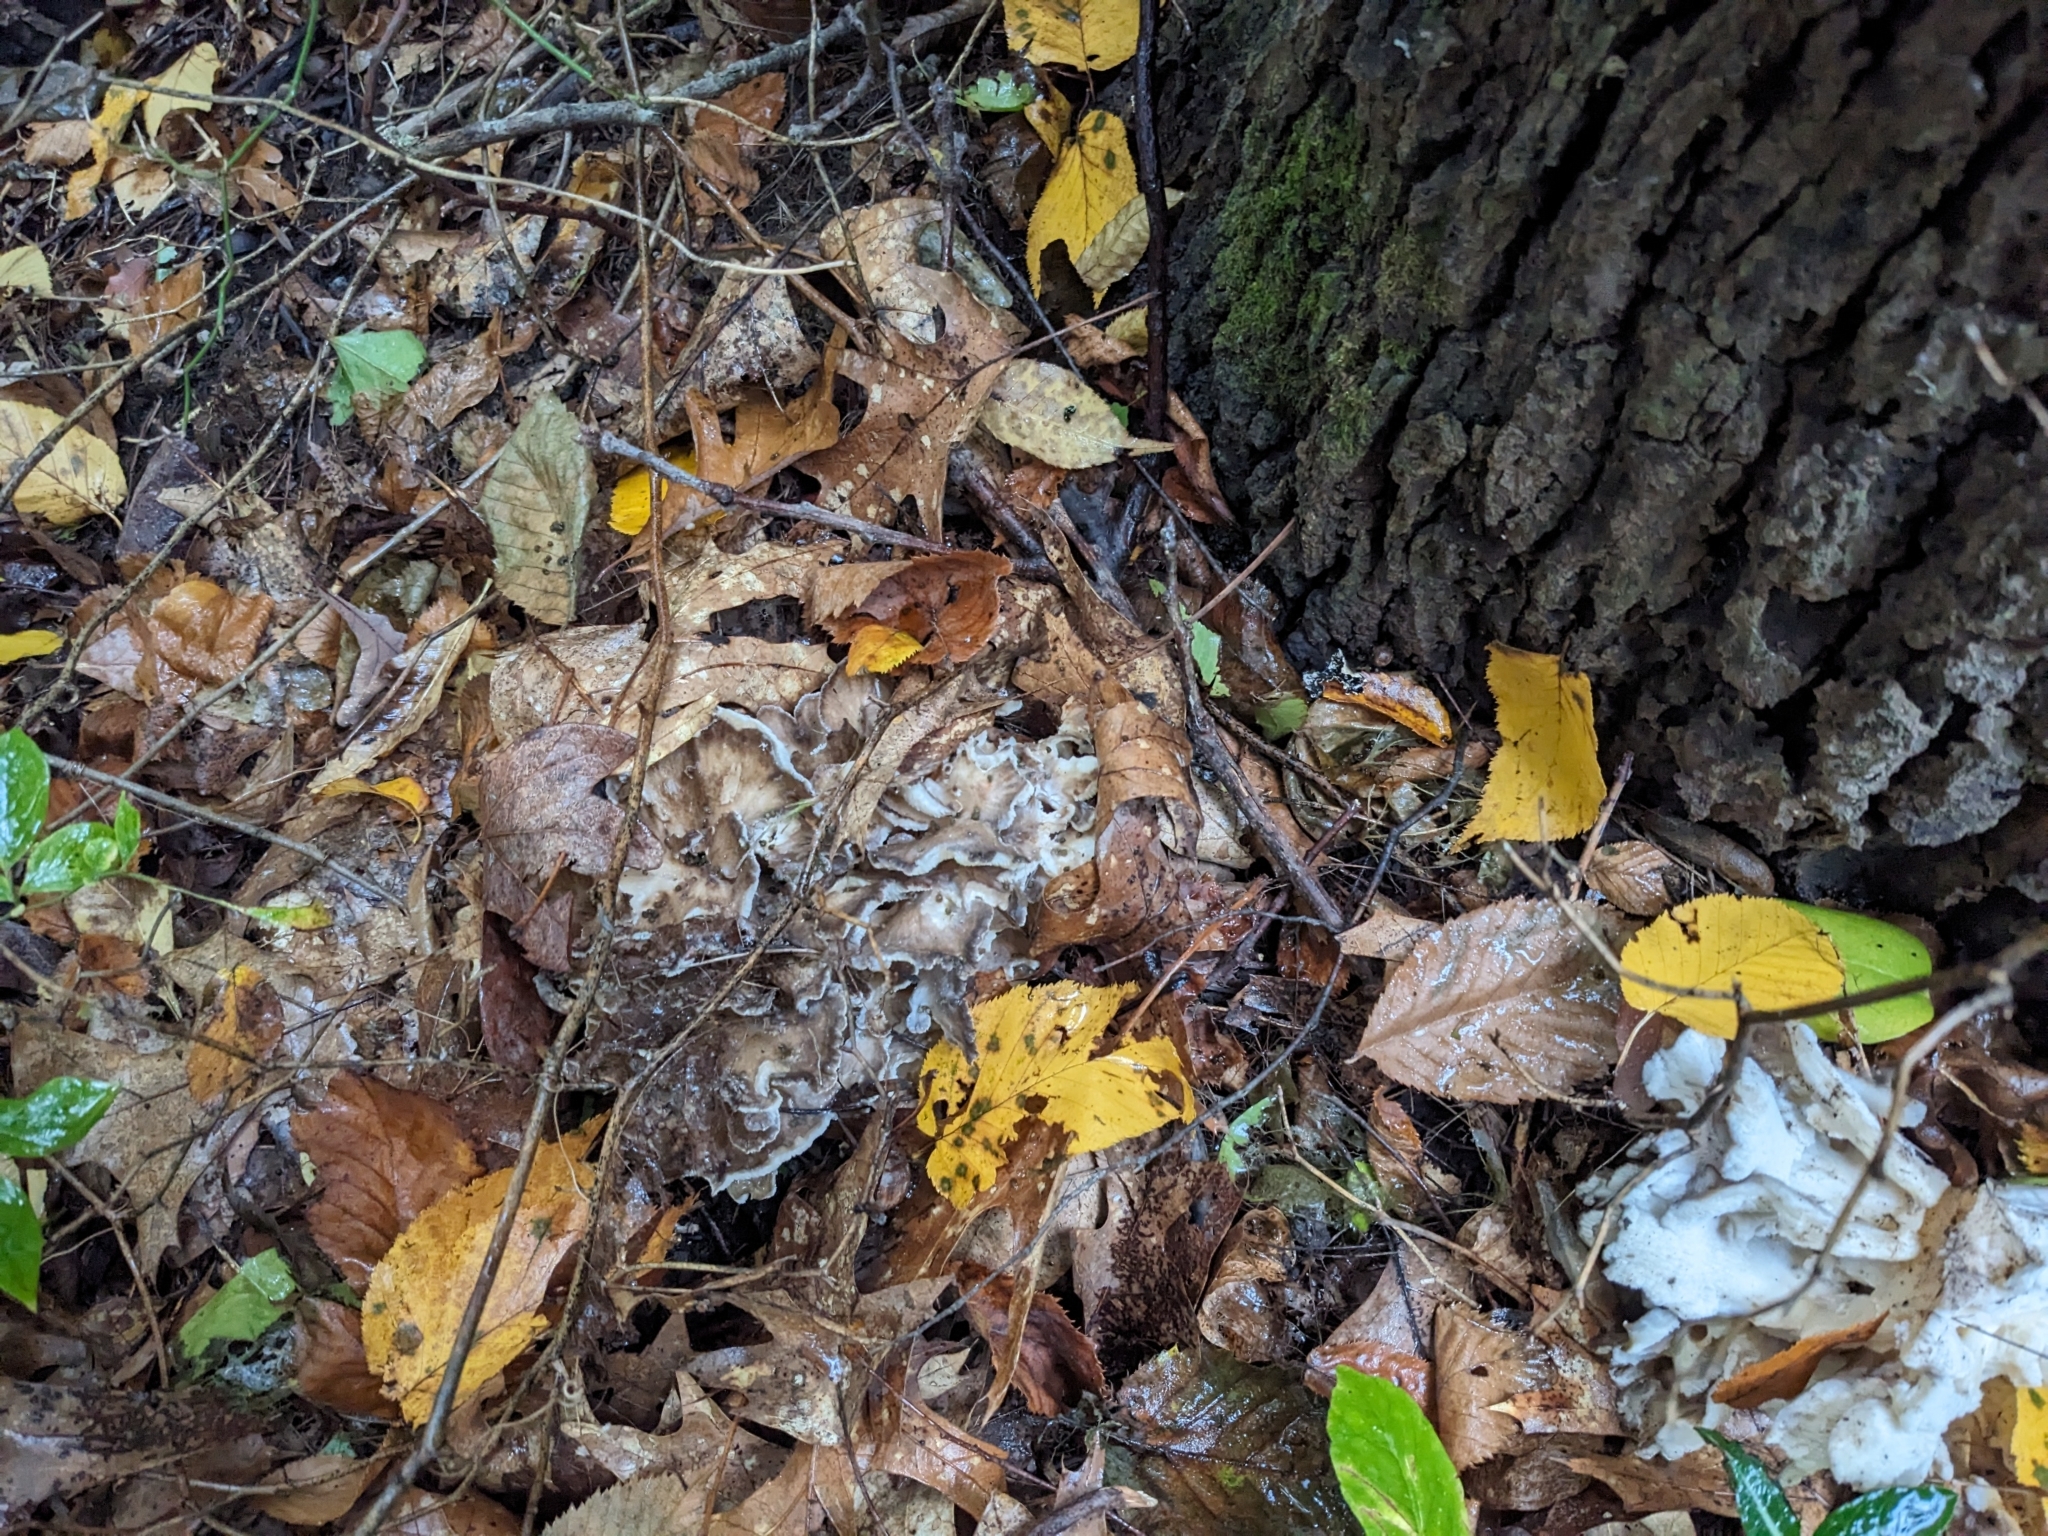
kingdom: Fungi
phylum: Basidiomycota
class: Agaricomycetes
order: Polyporales
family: Grifolaceae
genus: Grifola
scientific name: Grifola frondosa
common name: Hen of the woods
